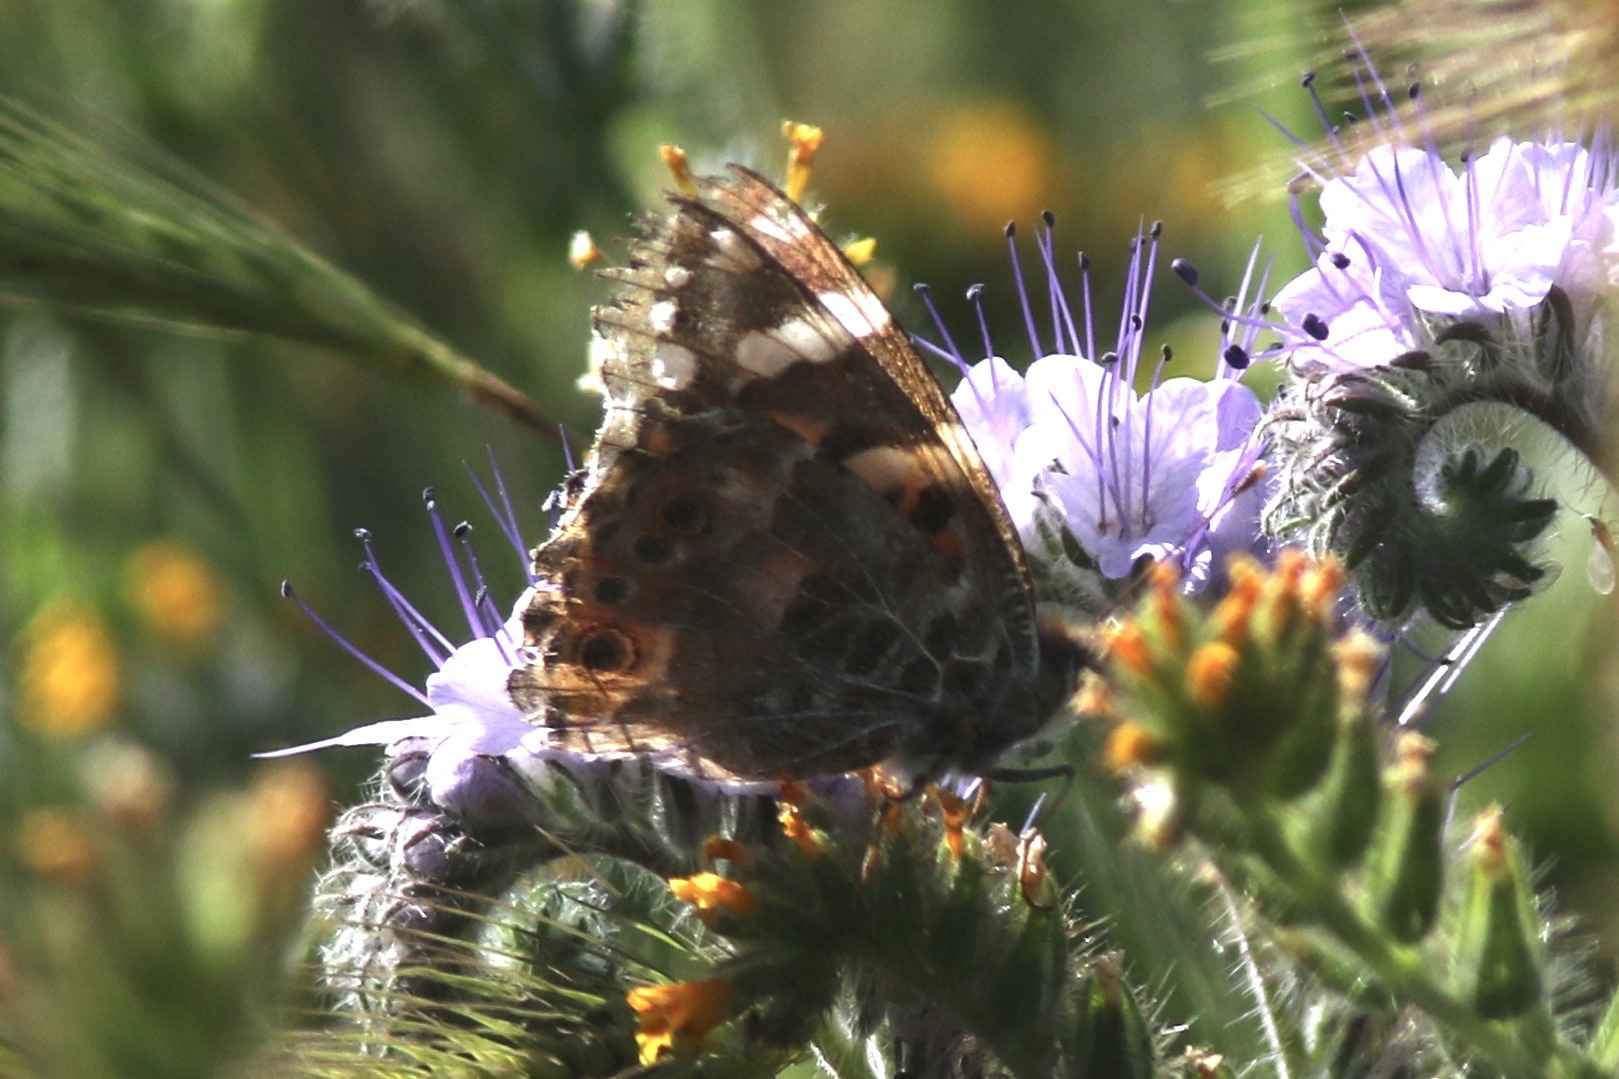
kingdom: Animalia
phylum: Arthropoda
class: Insecta
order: Lepidoptera
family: Nymphalidae
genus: Vanessa
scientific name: Vanessa cardui
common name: Painted lady
